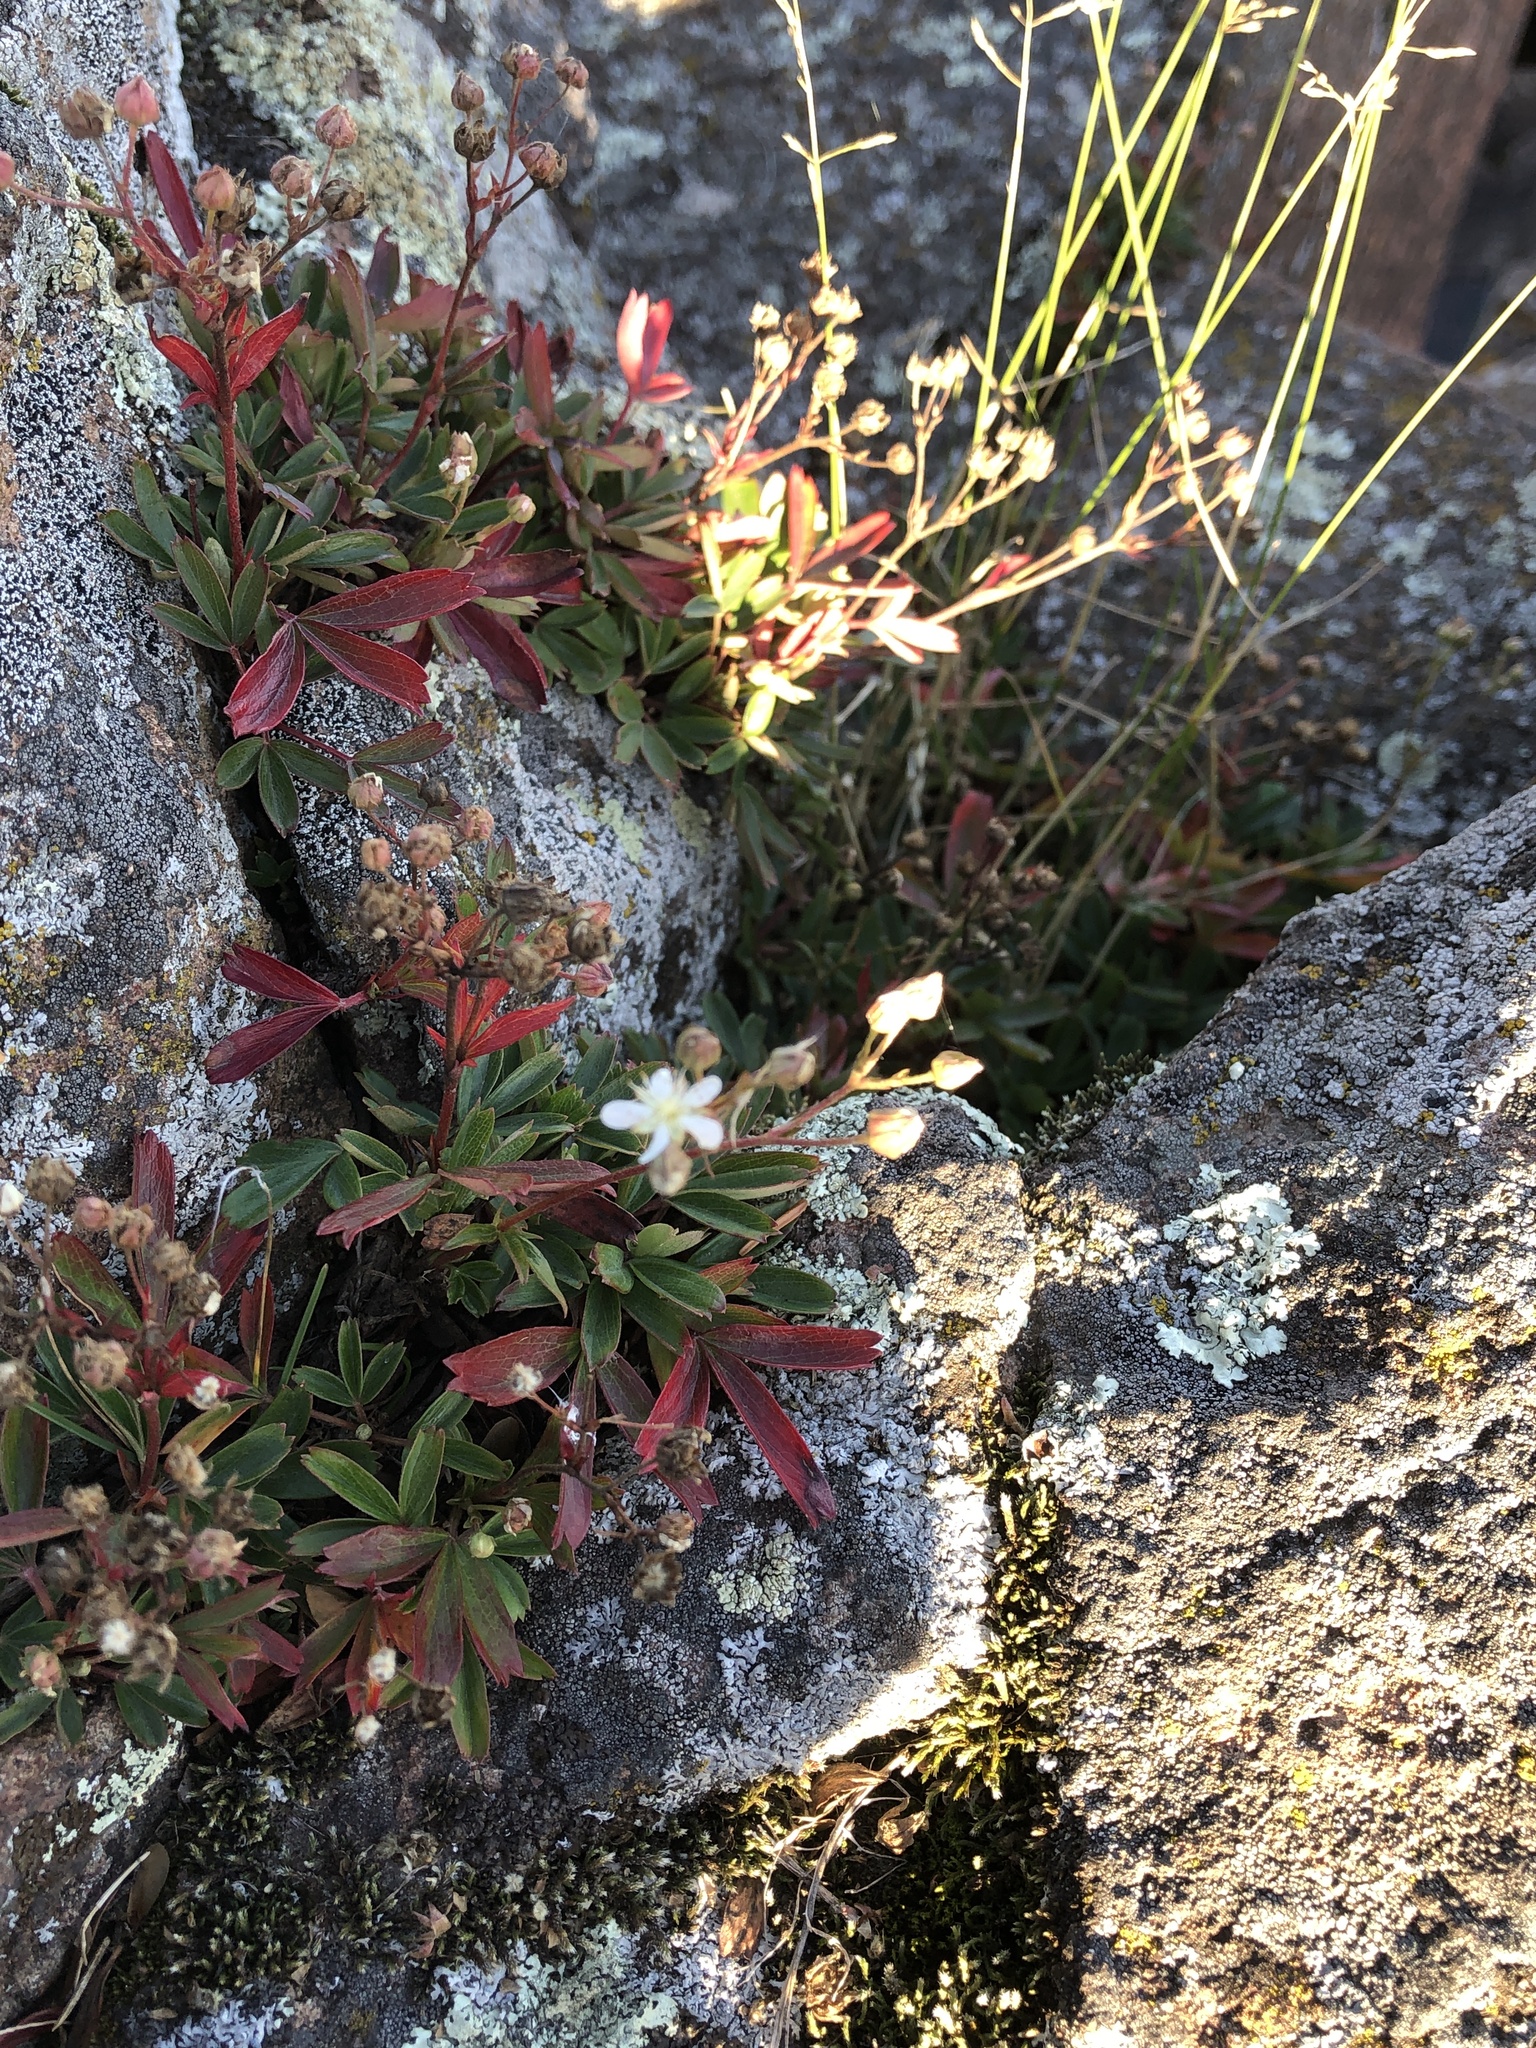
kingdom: Plantae
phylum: Tracheophyta
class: Magnoliopsida
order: Rosales
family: Rosaceae
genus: Sibbaldia
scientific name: Sibbaldia tridentata
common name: Three-toothed cinquefoil
